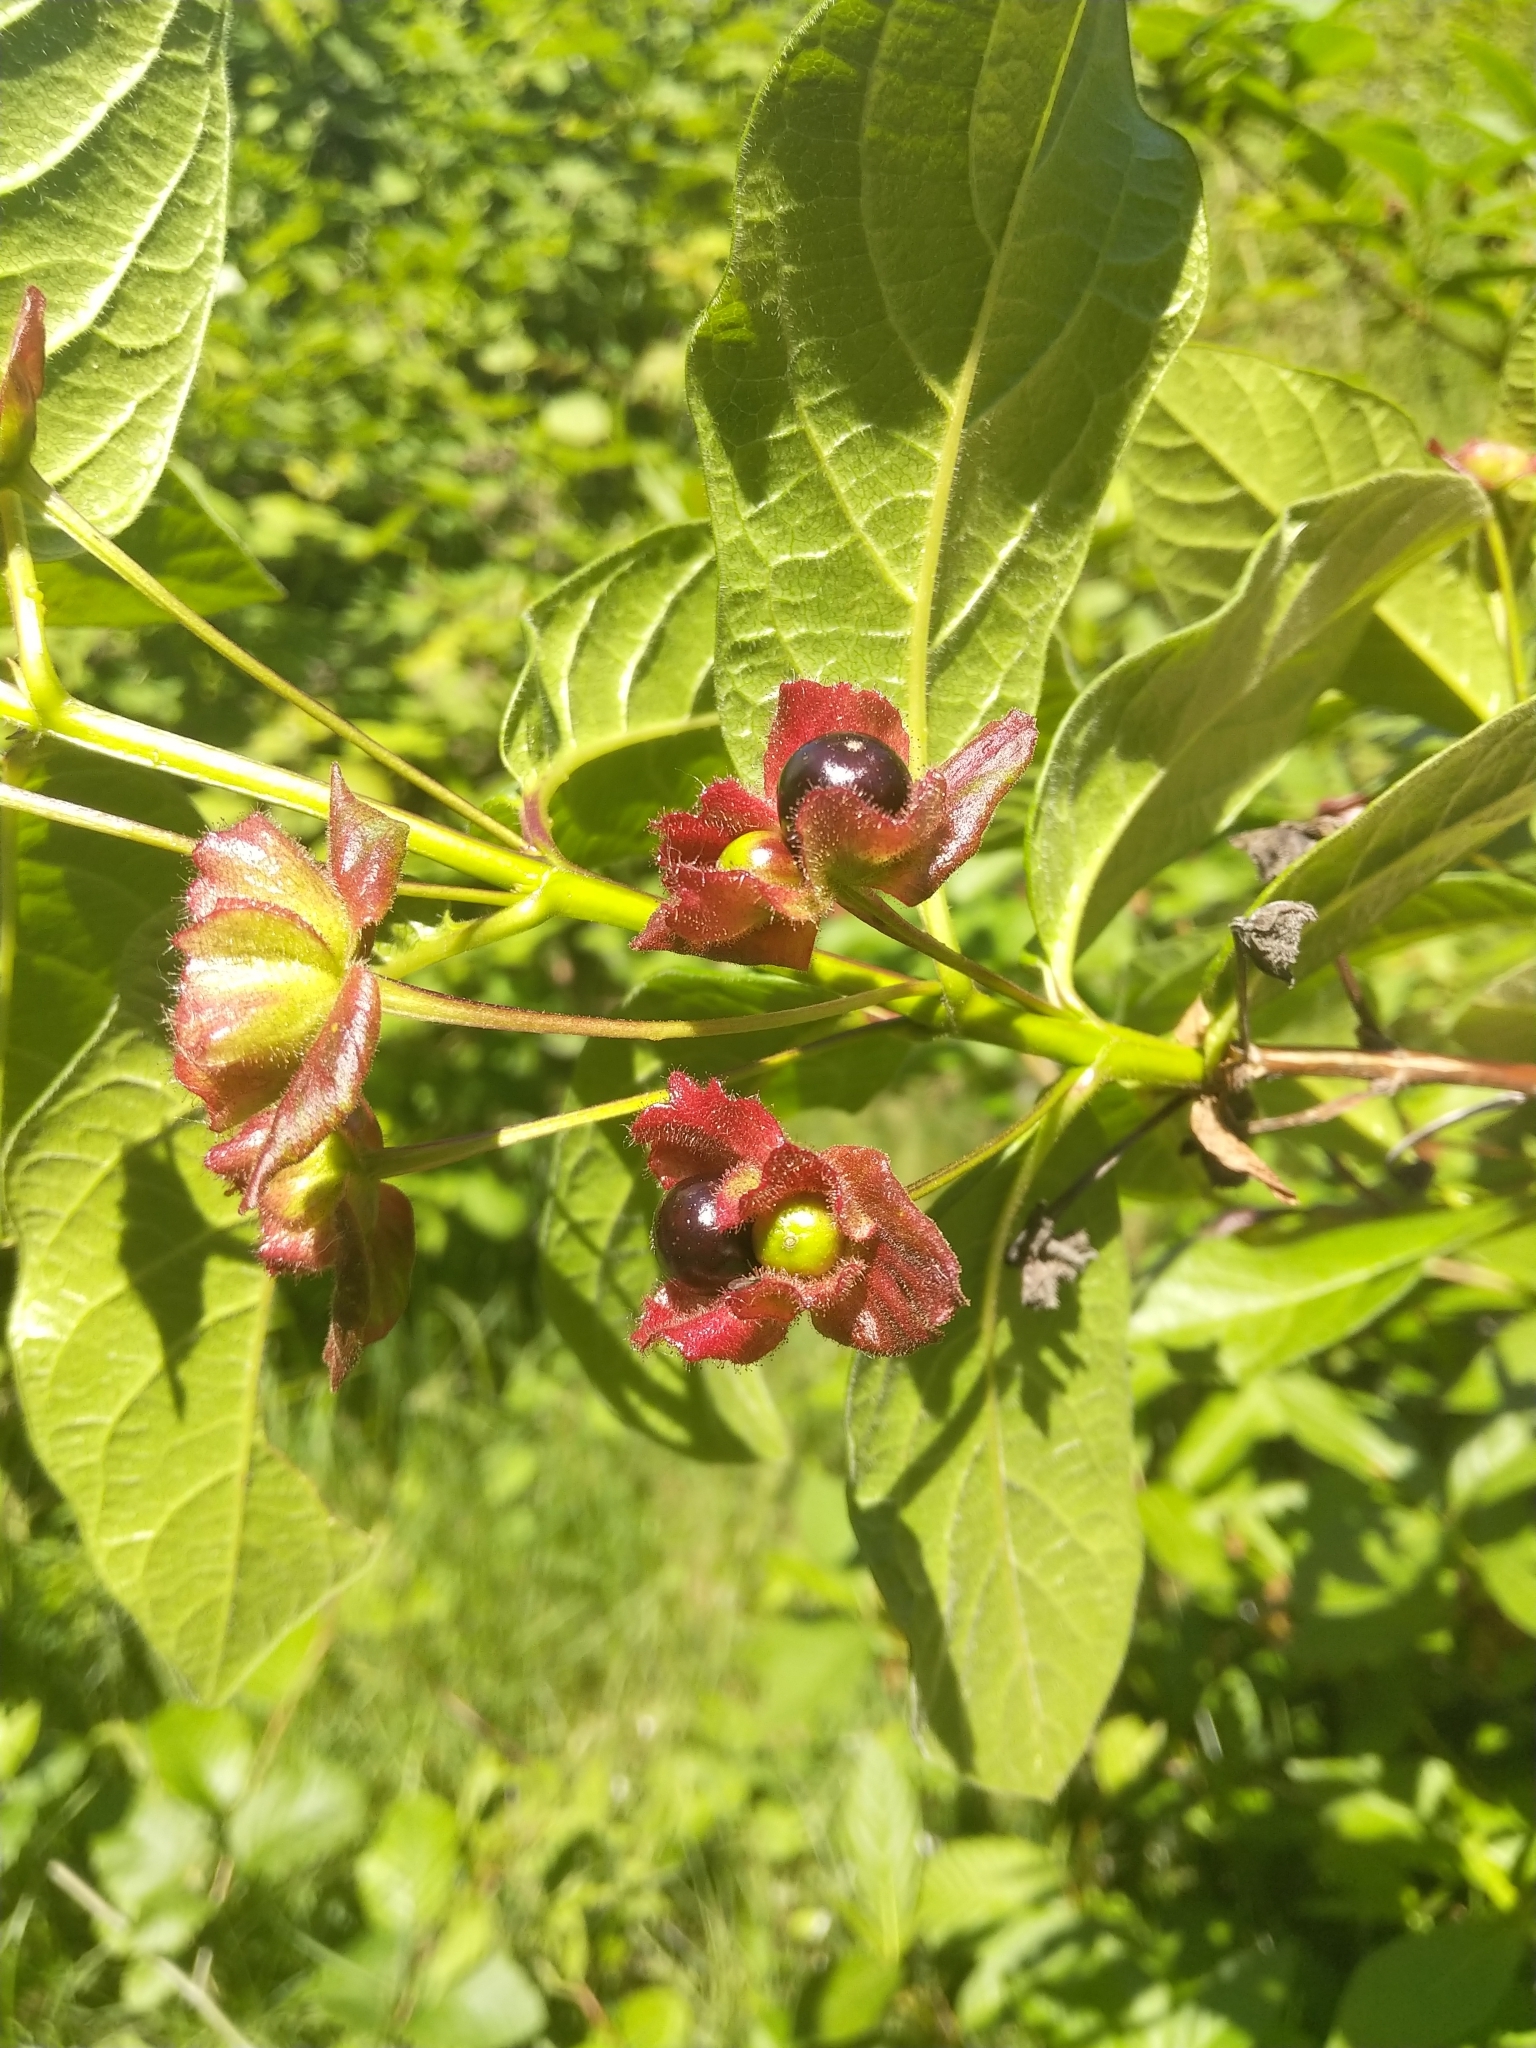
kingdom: Plantae
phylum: Tracheophyta
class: Magnoliopsida
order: Dipsacales
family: Caprifoliaceae
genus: Lonicera
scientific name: Lonicera involucrata
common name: Californian honeysuckle
